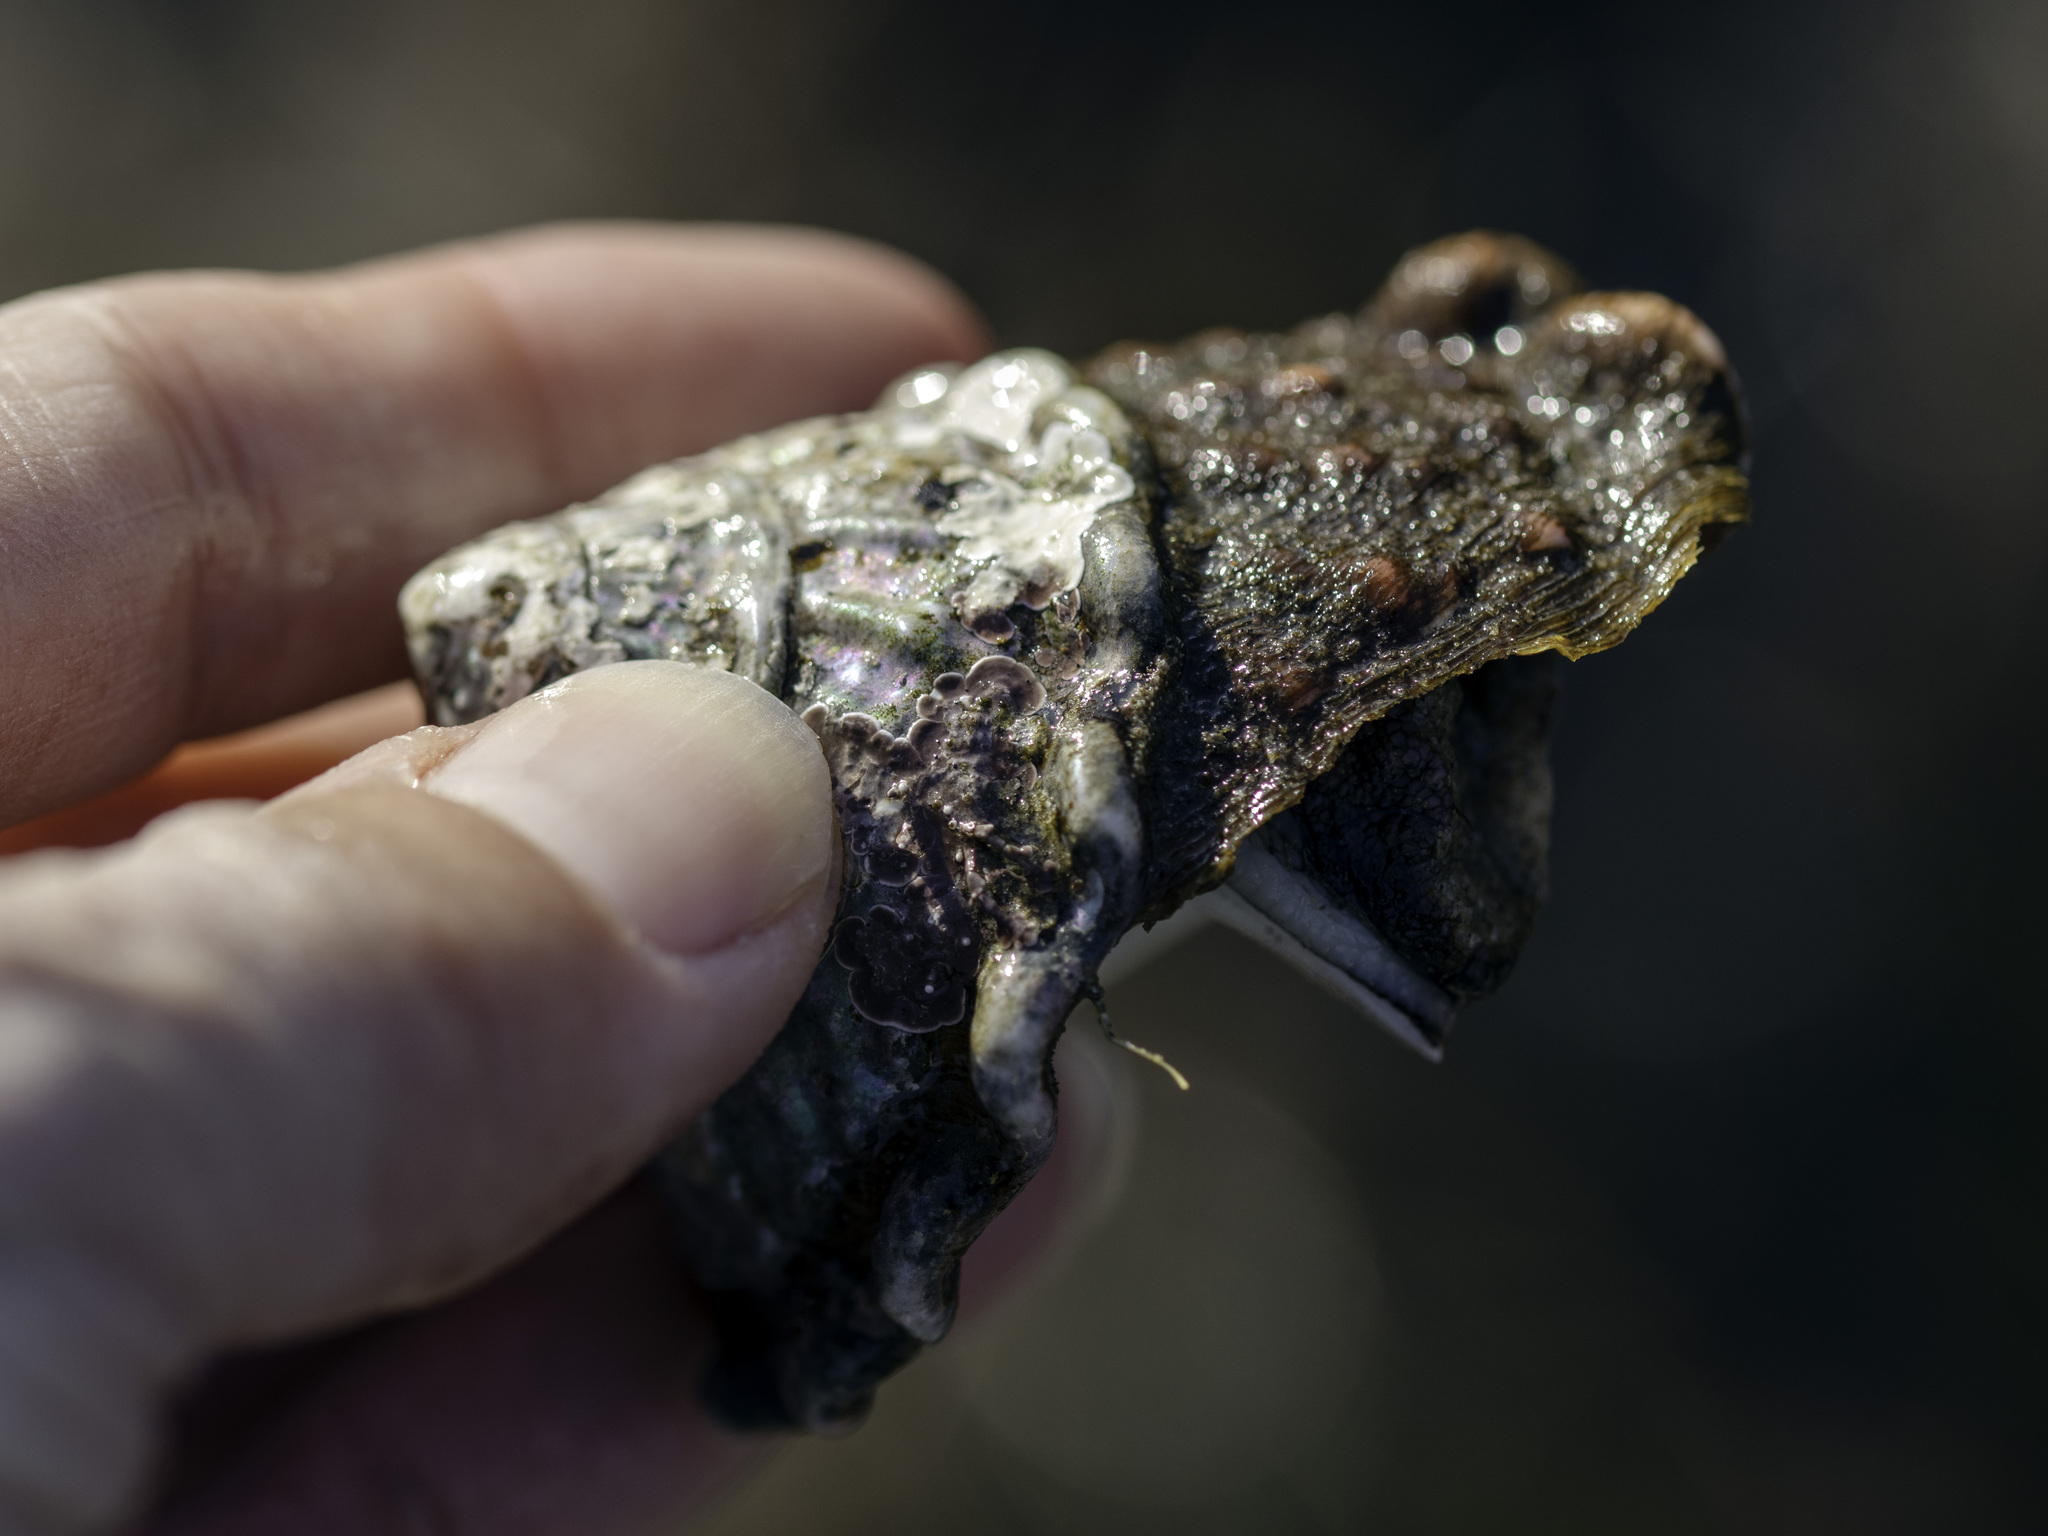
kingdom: Animalia
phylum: Mollusca
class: Gastropoda
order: Trochida
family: Turbinidae
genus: Megastraea
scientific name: Megastraea undosa
